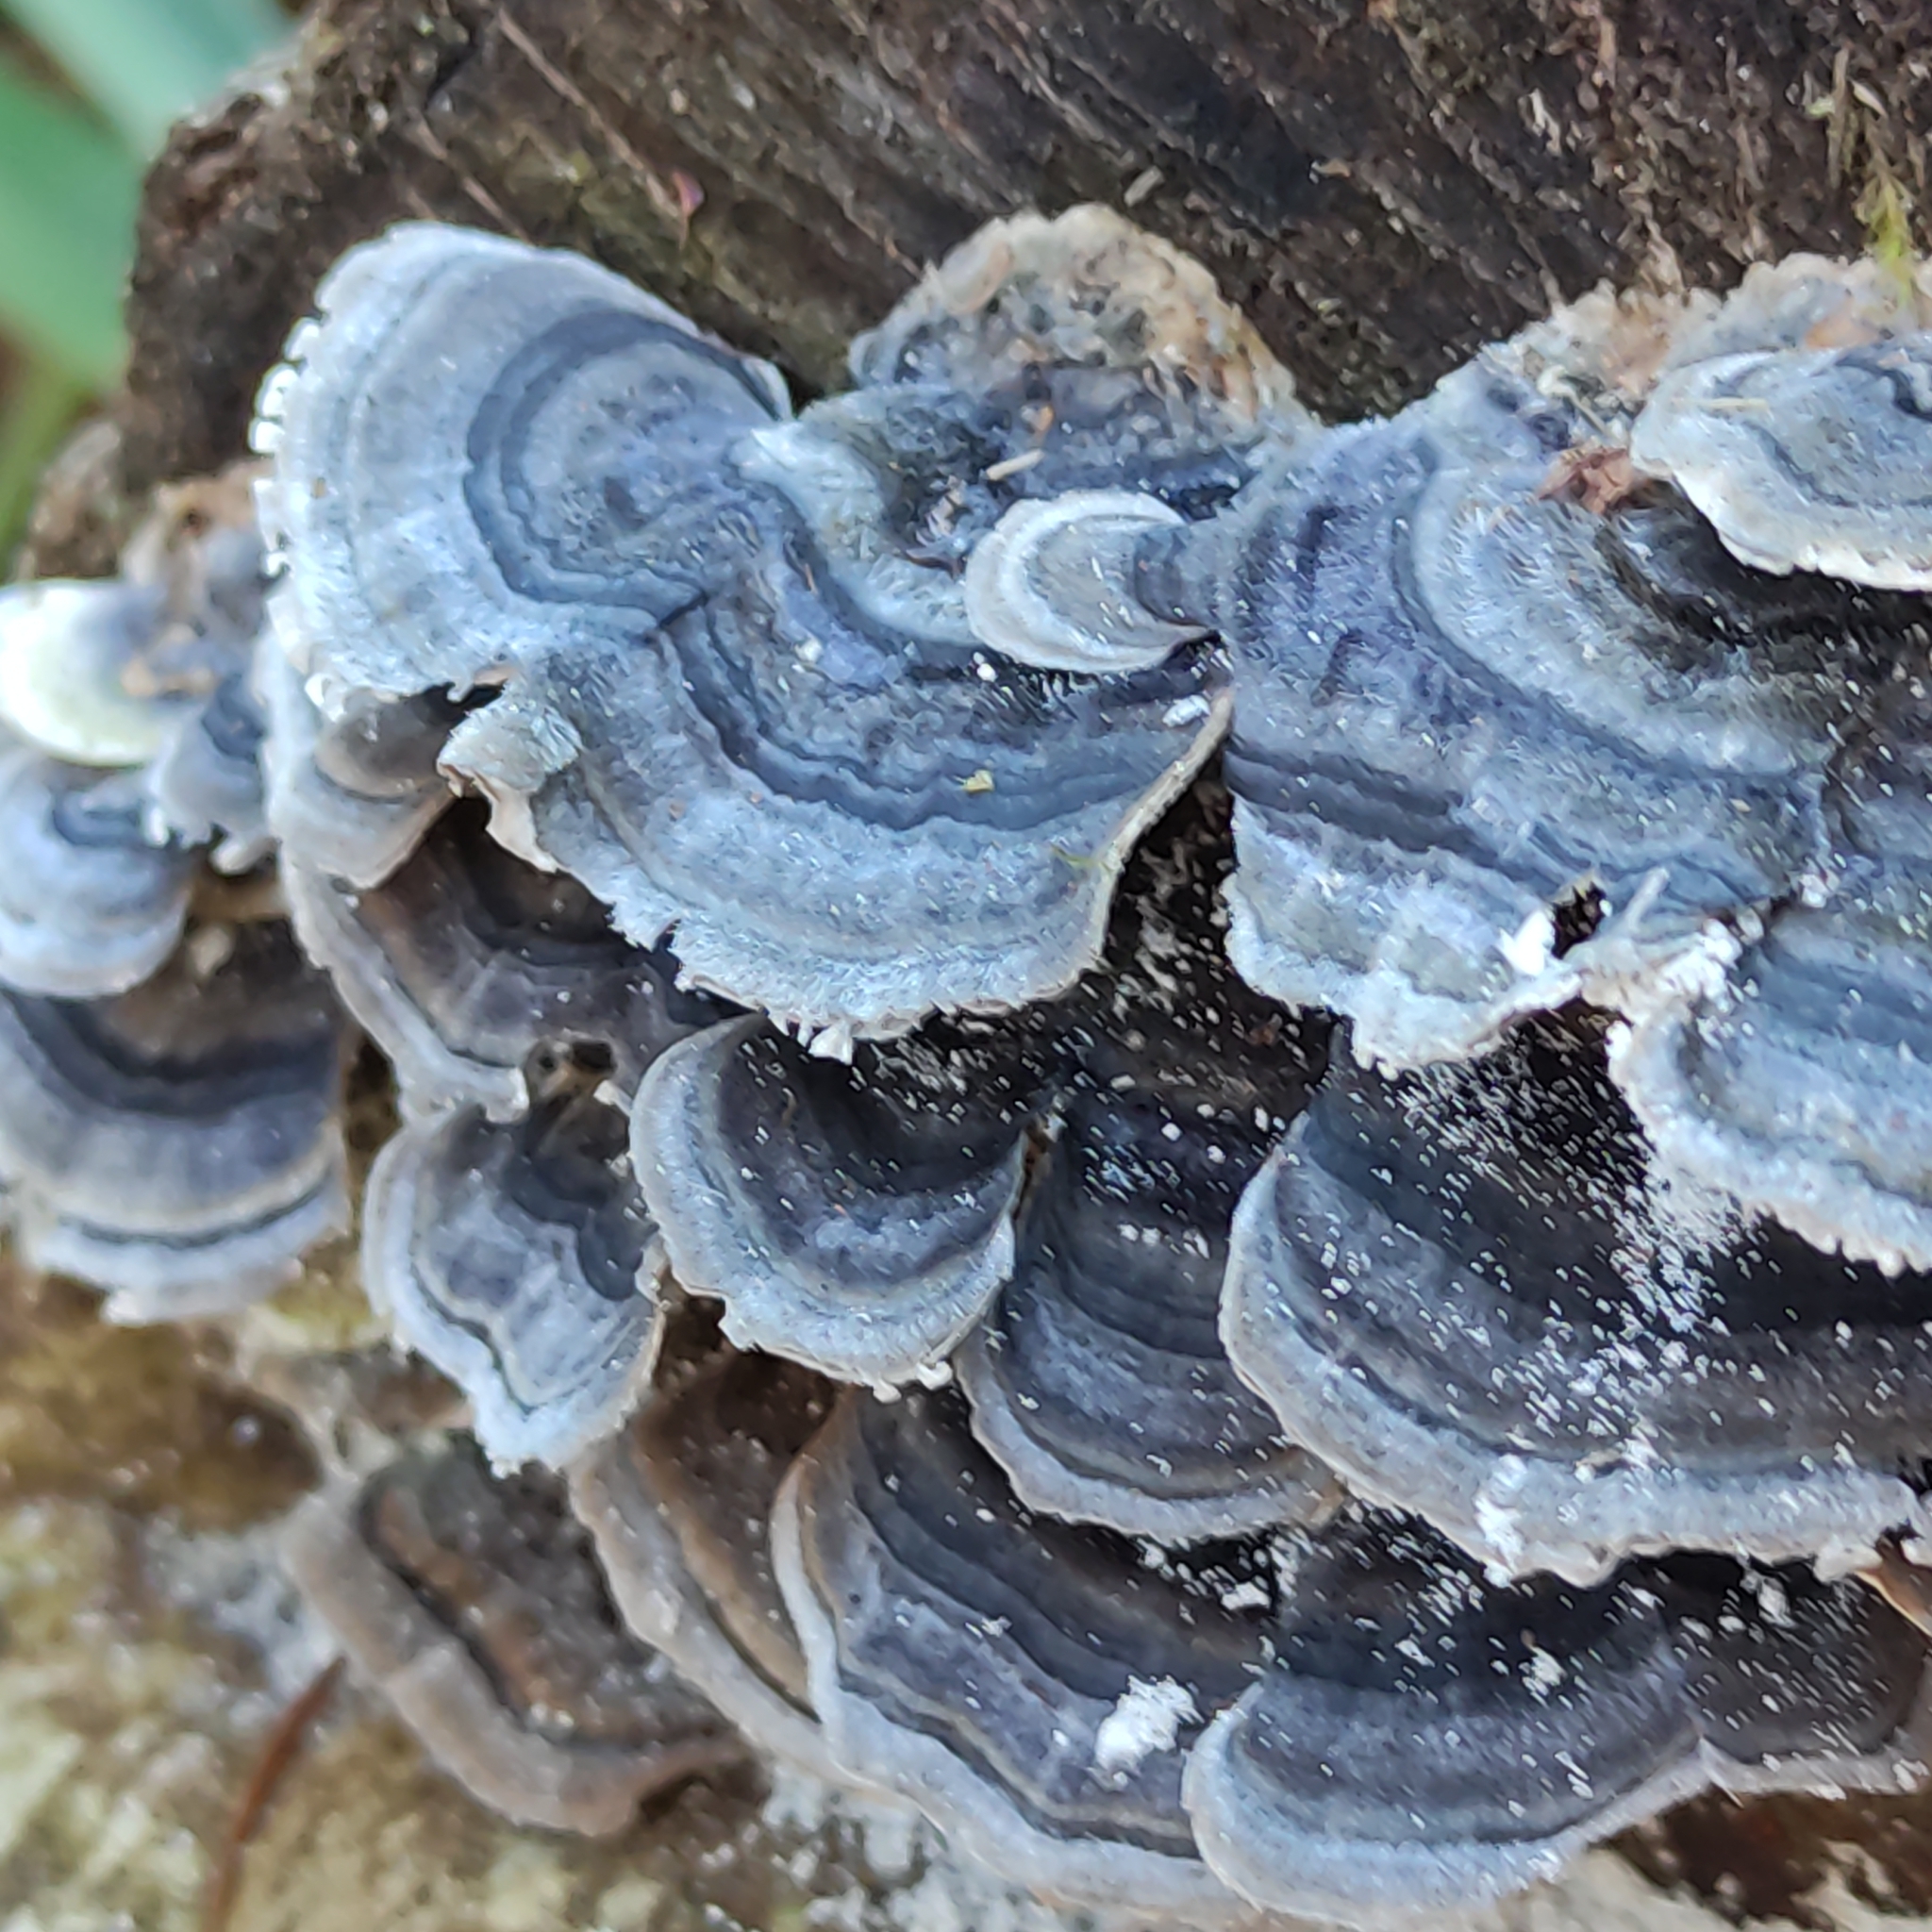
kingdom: Fungi
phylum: Basidiomycota
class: Agaricomycetes
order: Polyporales
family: Polyporaceae
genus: Trametes
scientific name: Trametes versicolor
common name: Turkeytail
